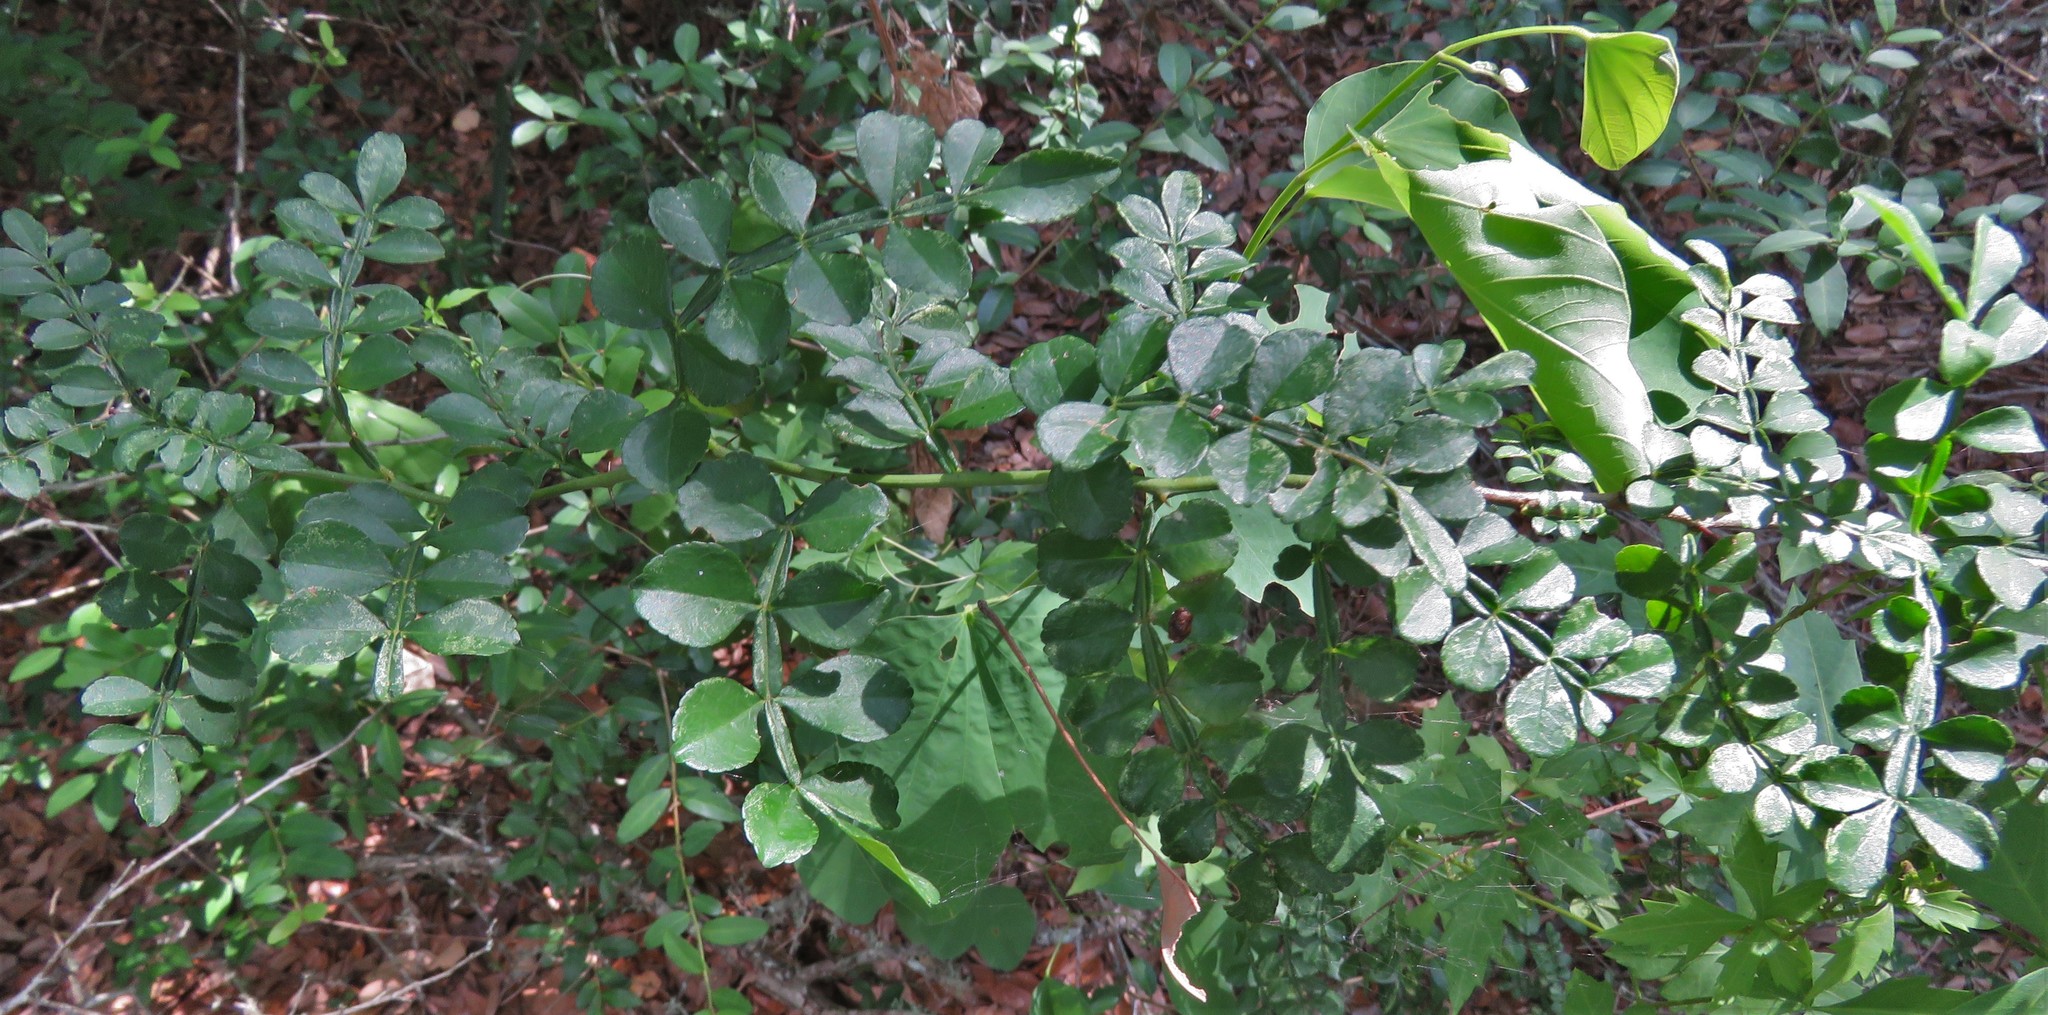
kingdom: Plantae
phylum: Tracheophyta
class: Magnoliopsida
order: Sapindales
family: Rutaceae
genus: Zanthoxylum
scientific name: Zanthoxylum fagara
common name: Lime prickly-ash
